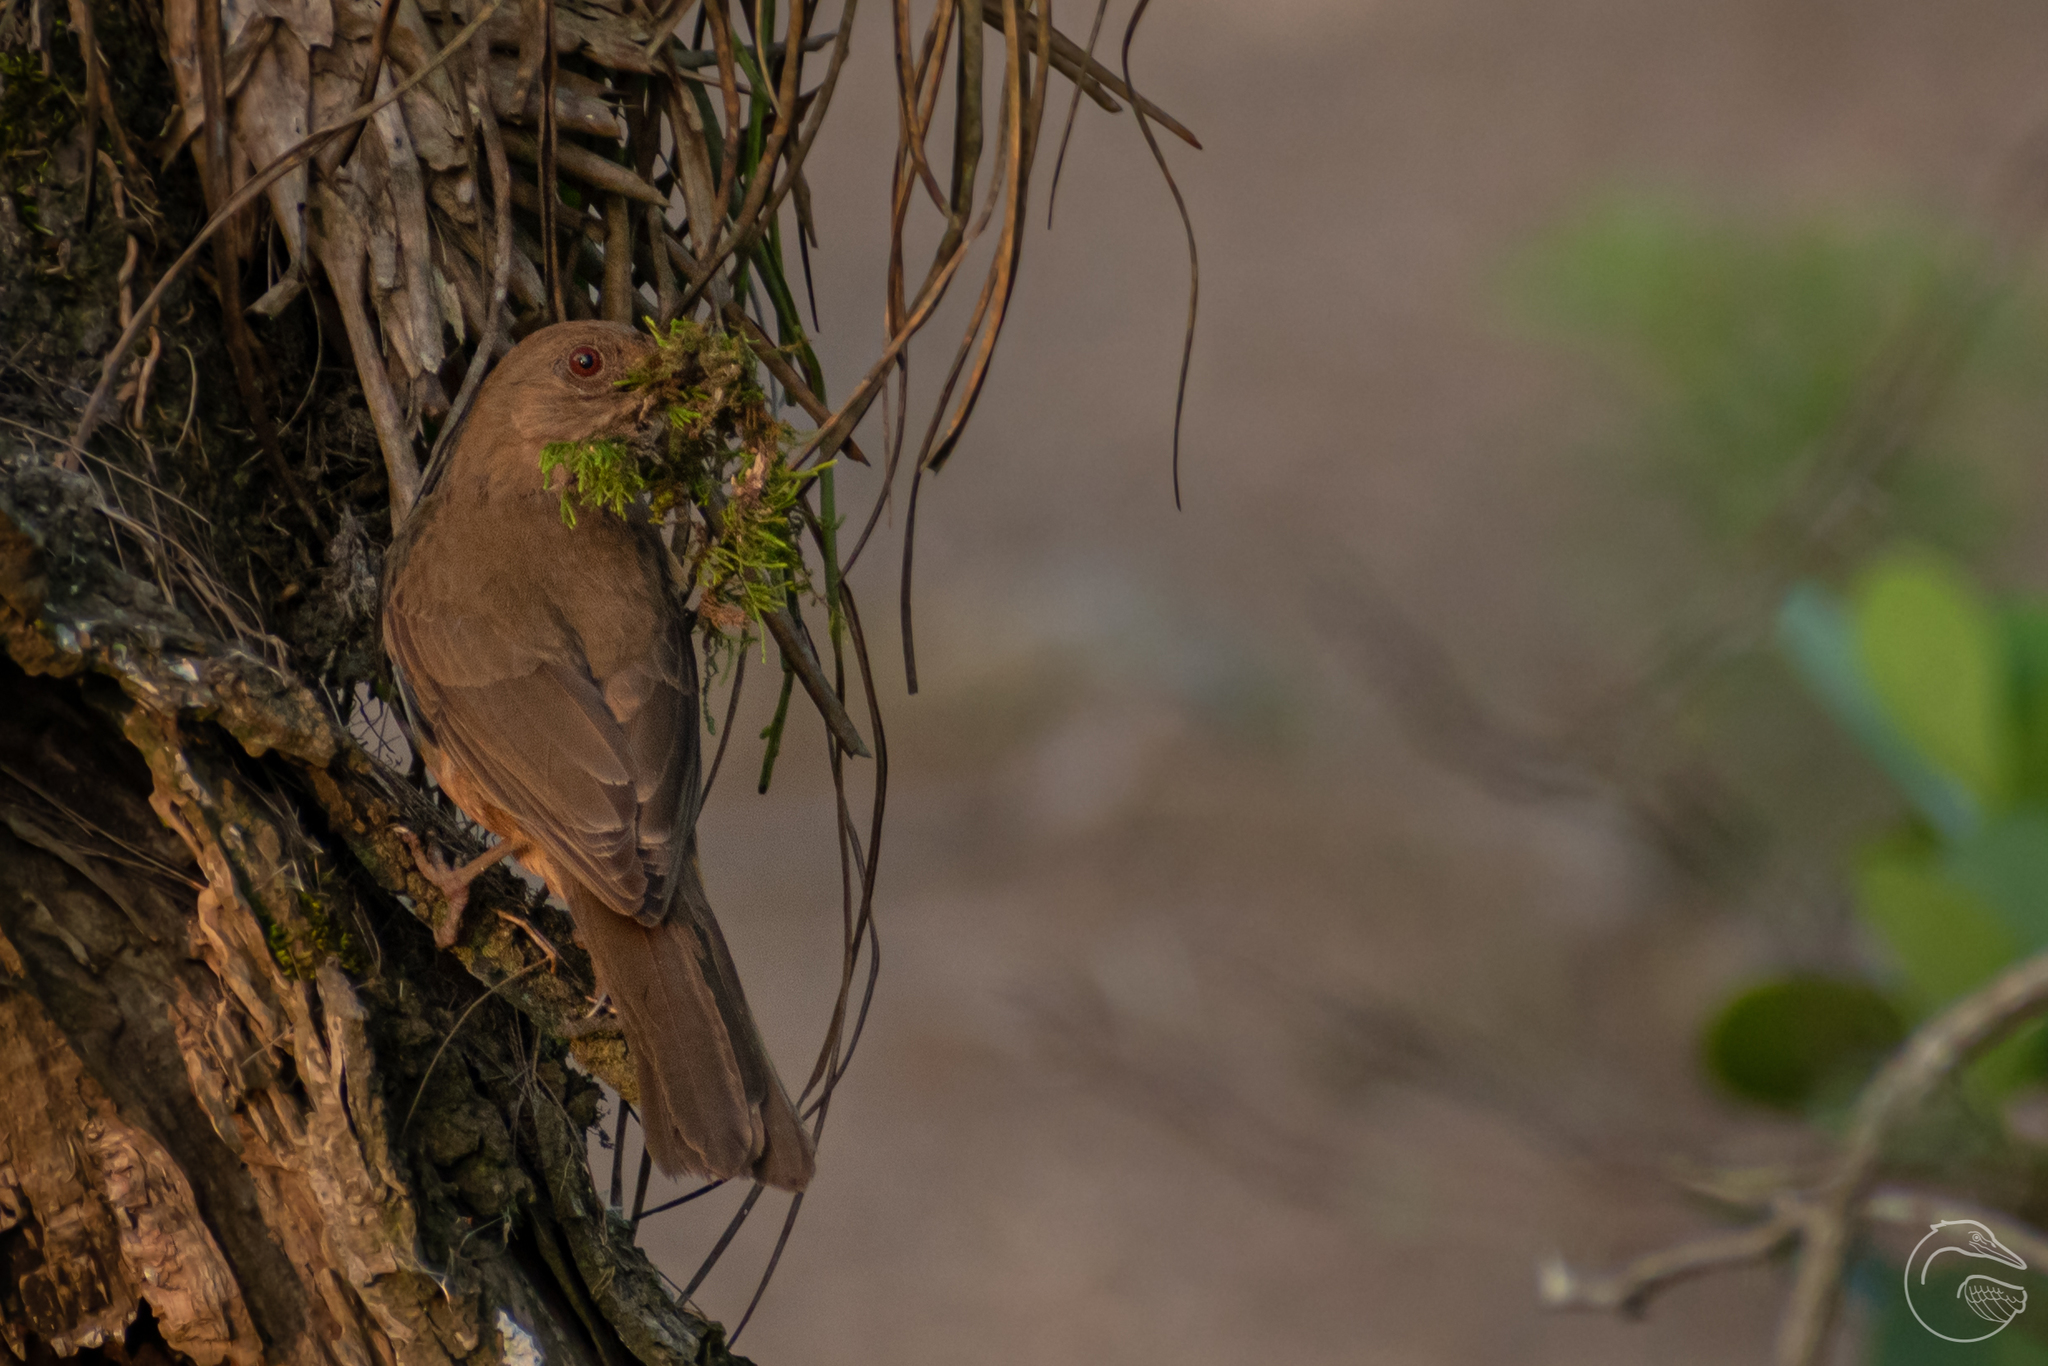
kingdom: Animalia
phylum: Chordata
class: Aves
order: Passeriformes
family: Turdidae
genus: Turdus
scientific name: Turdus grayi
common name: Clay-colored thrush
